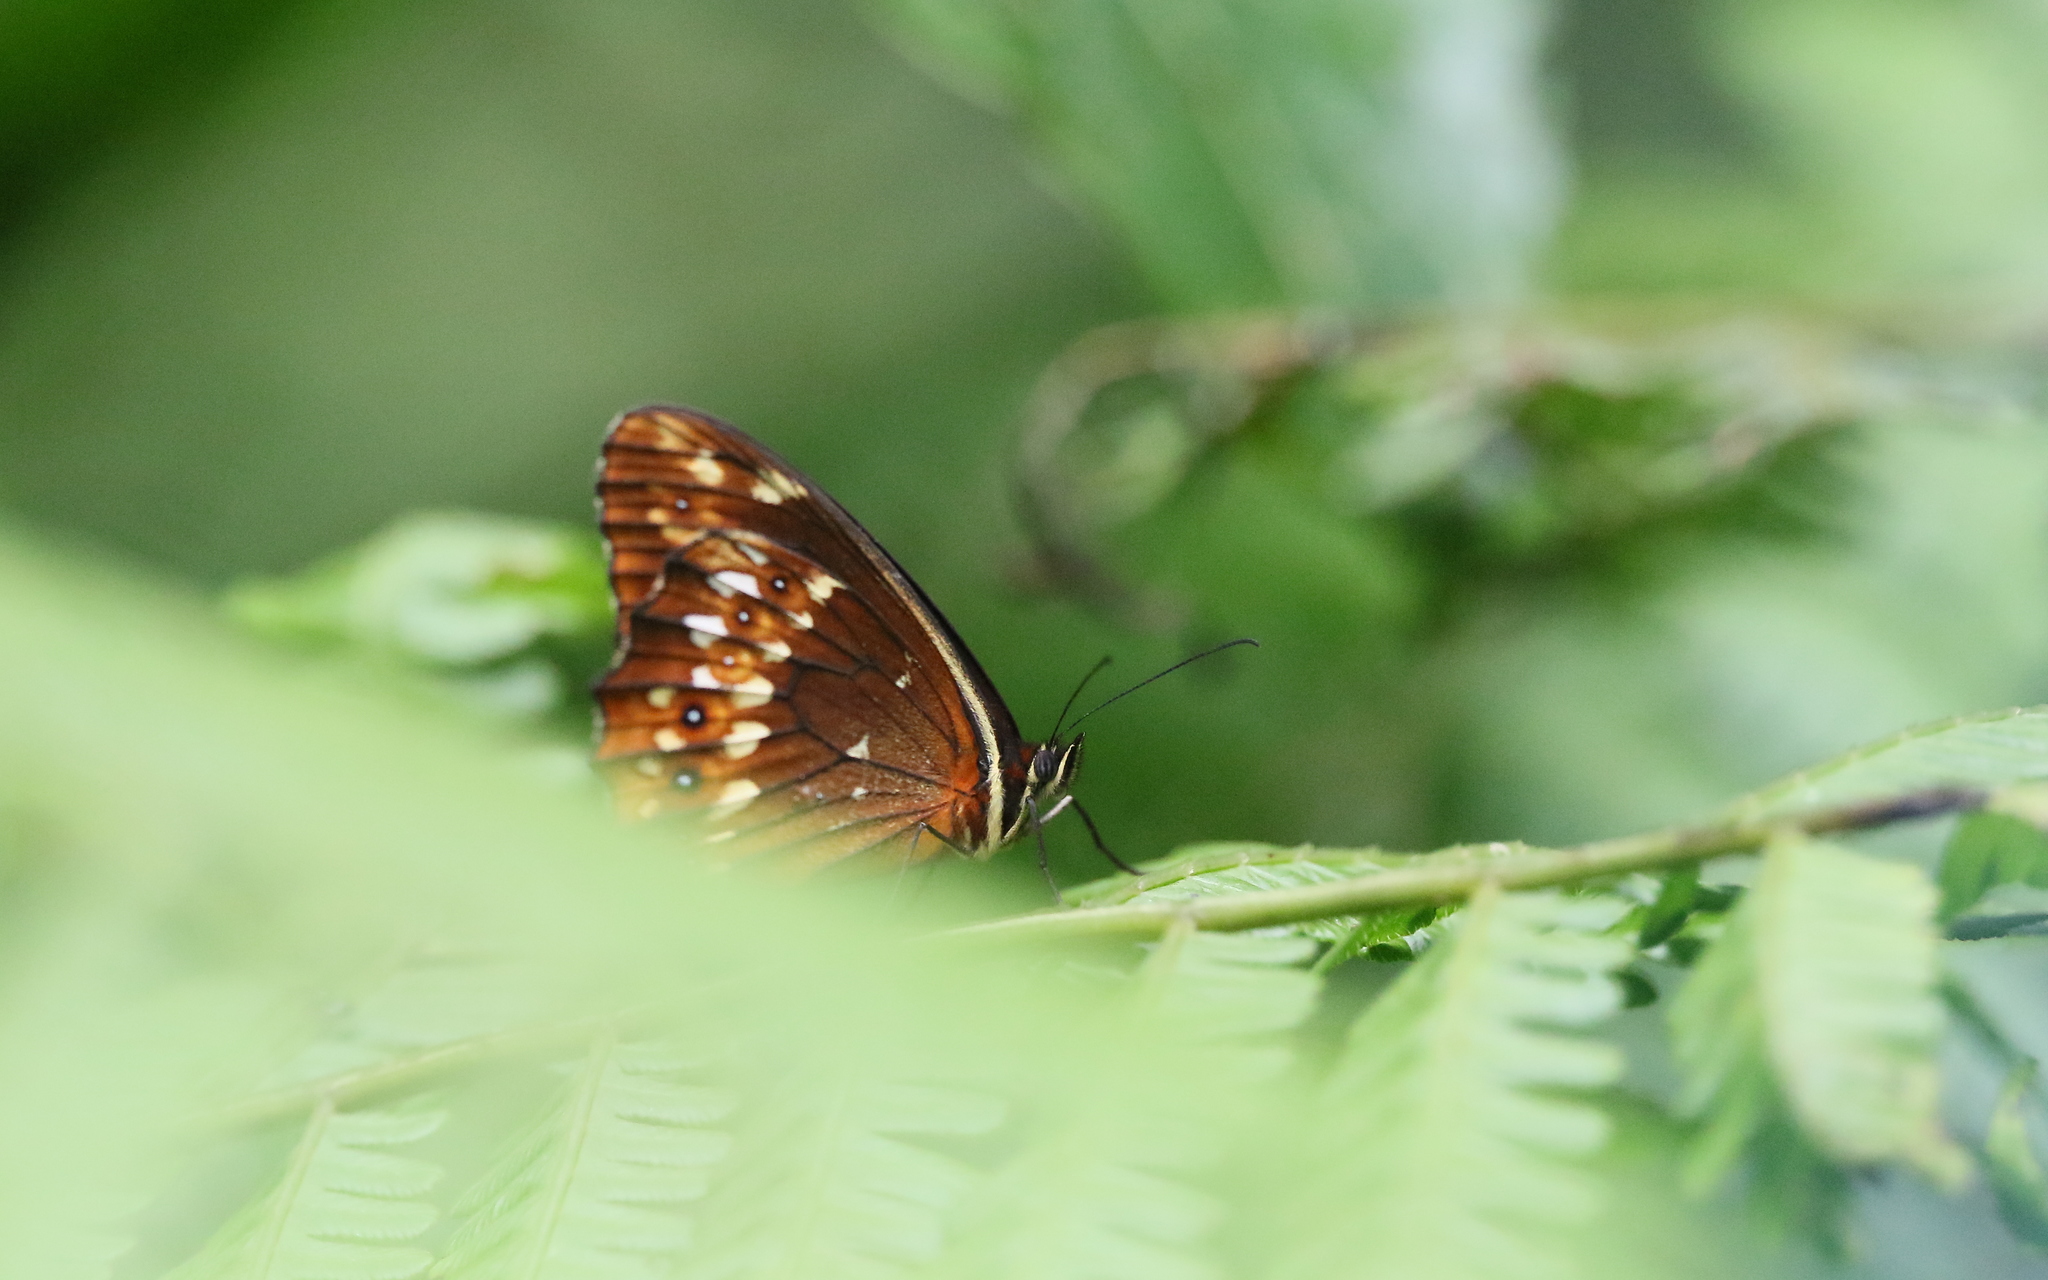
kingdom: Animalia
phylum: Arthropoda
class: Insecta
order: Lepidoptera
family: Nymphalidae
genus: Oxeoschistus
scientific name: Oxeoschistus protogenia
